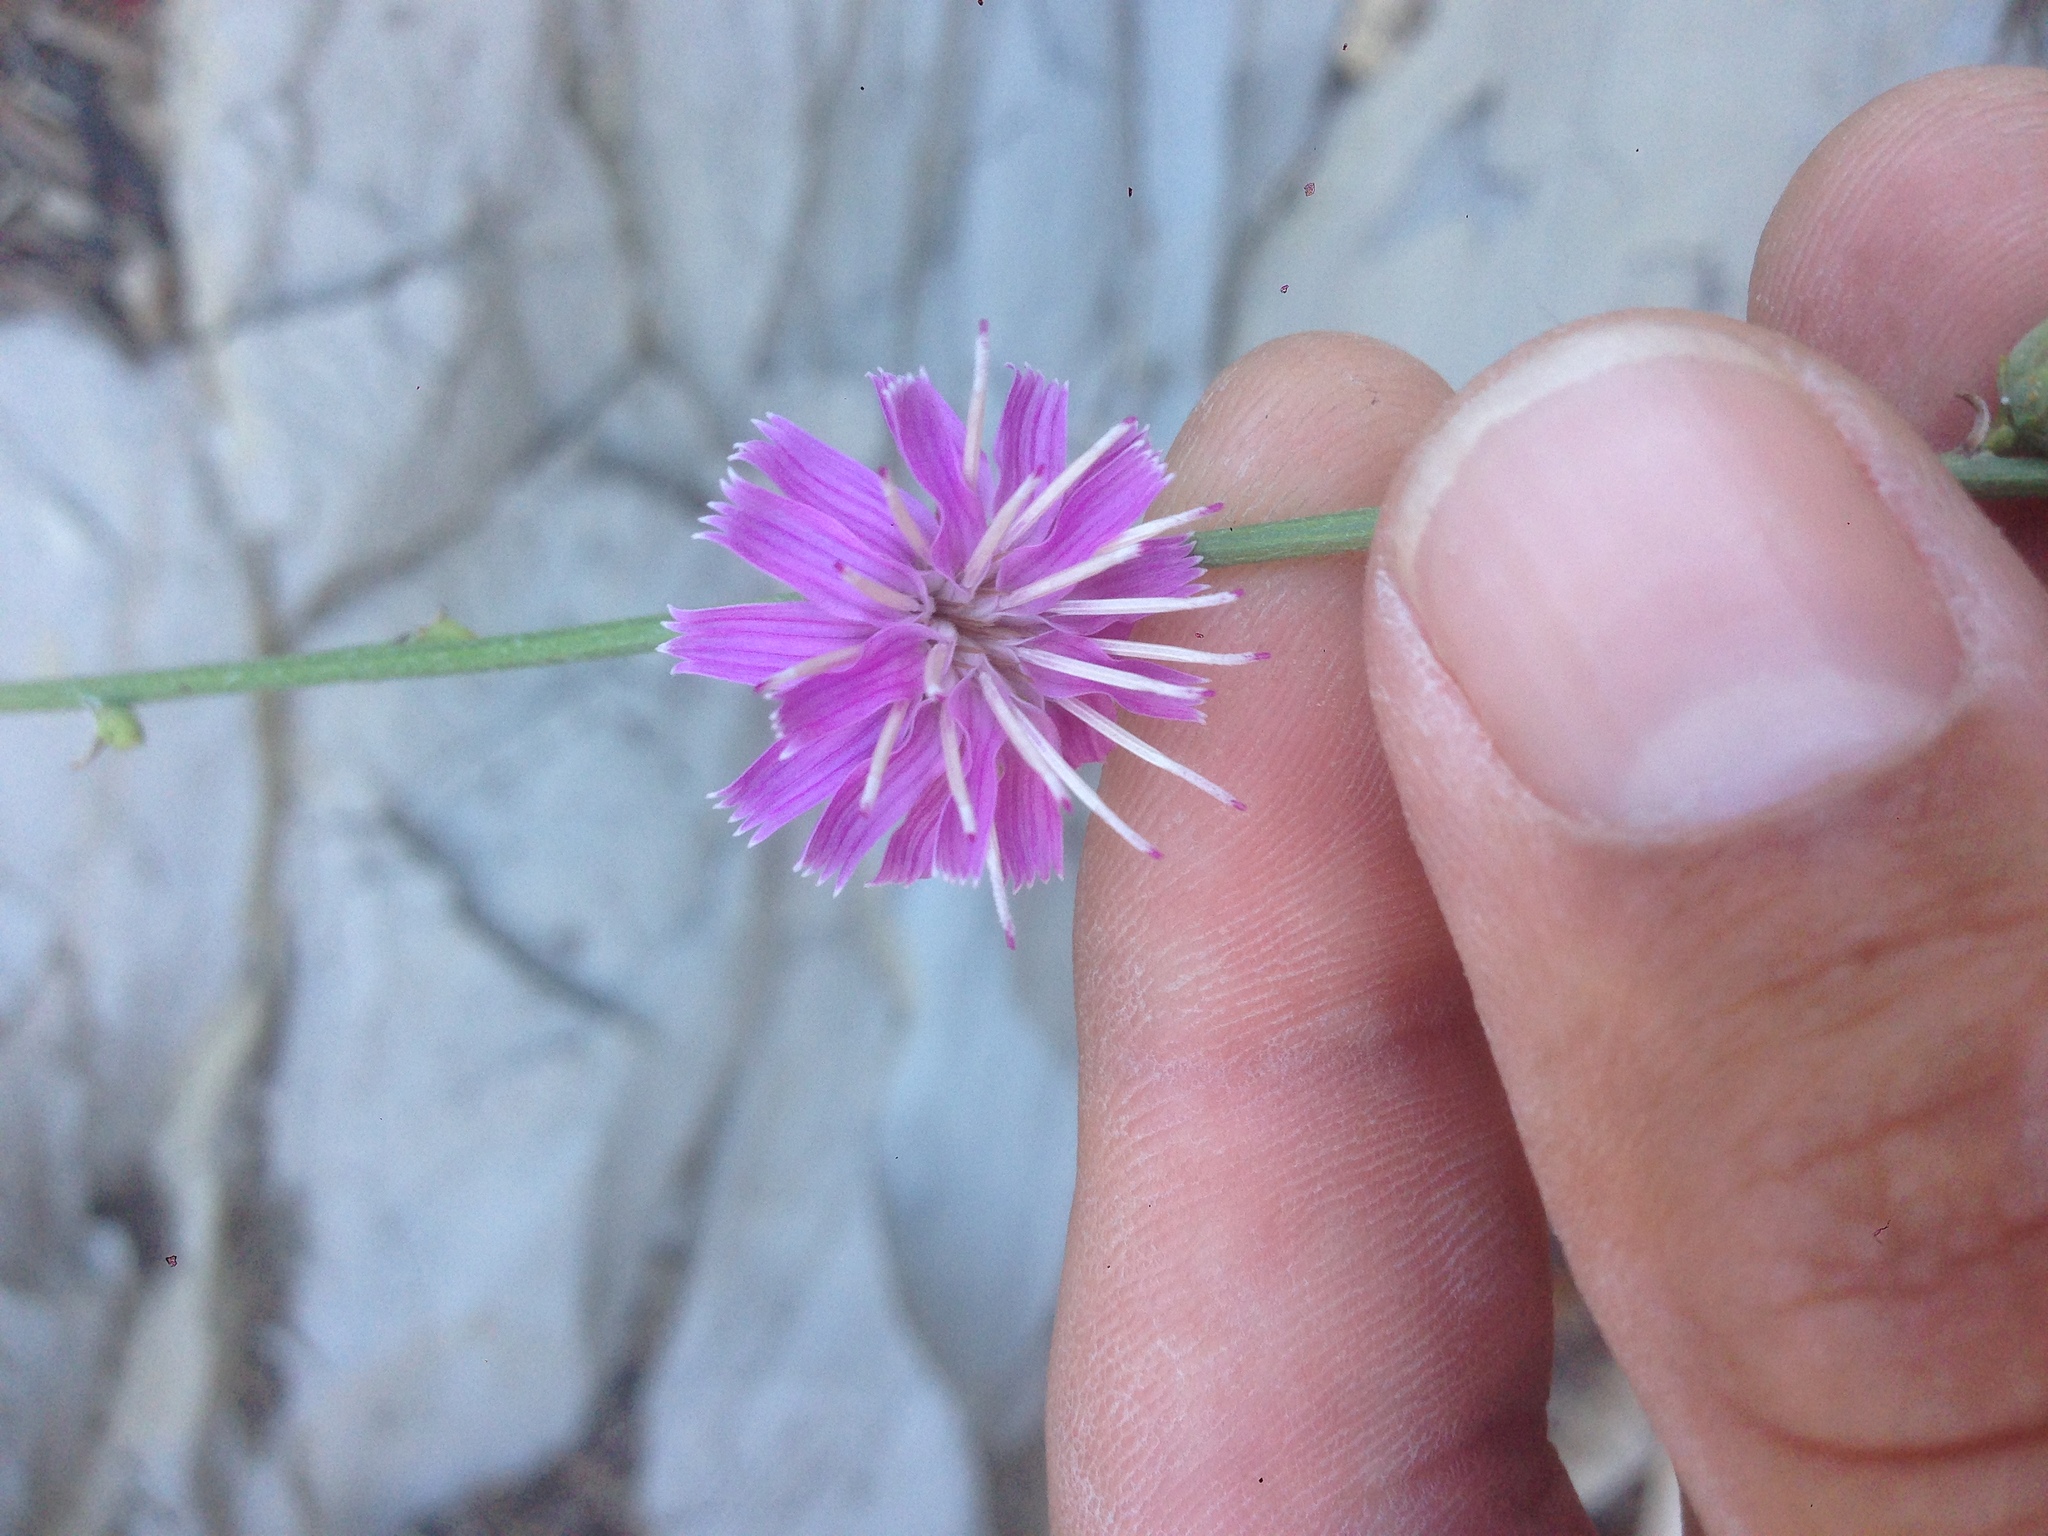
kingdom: Plantae
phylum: Tracheophyta
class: Magnoliopsida
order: Asterales
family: Asteraceae
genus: Stephanomeria
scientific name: Stephanomeria cichoriacea
